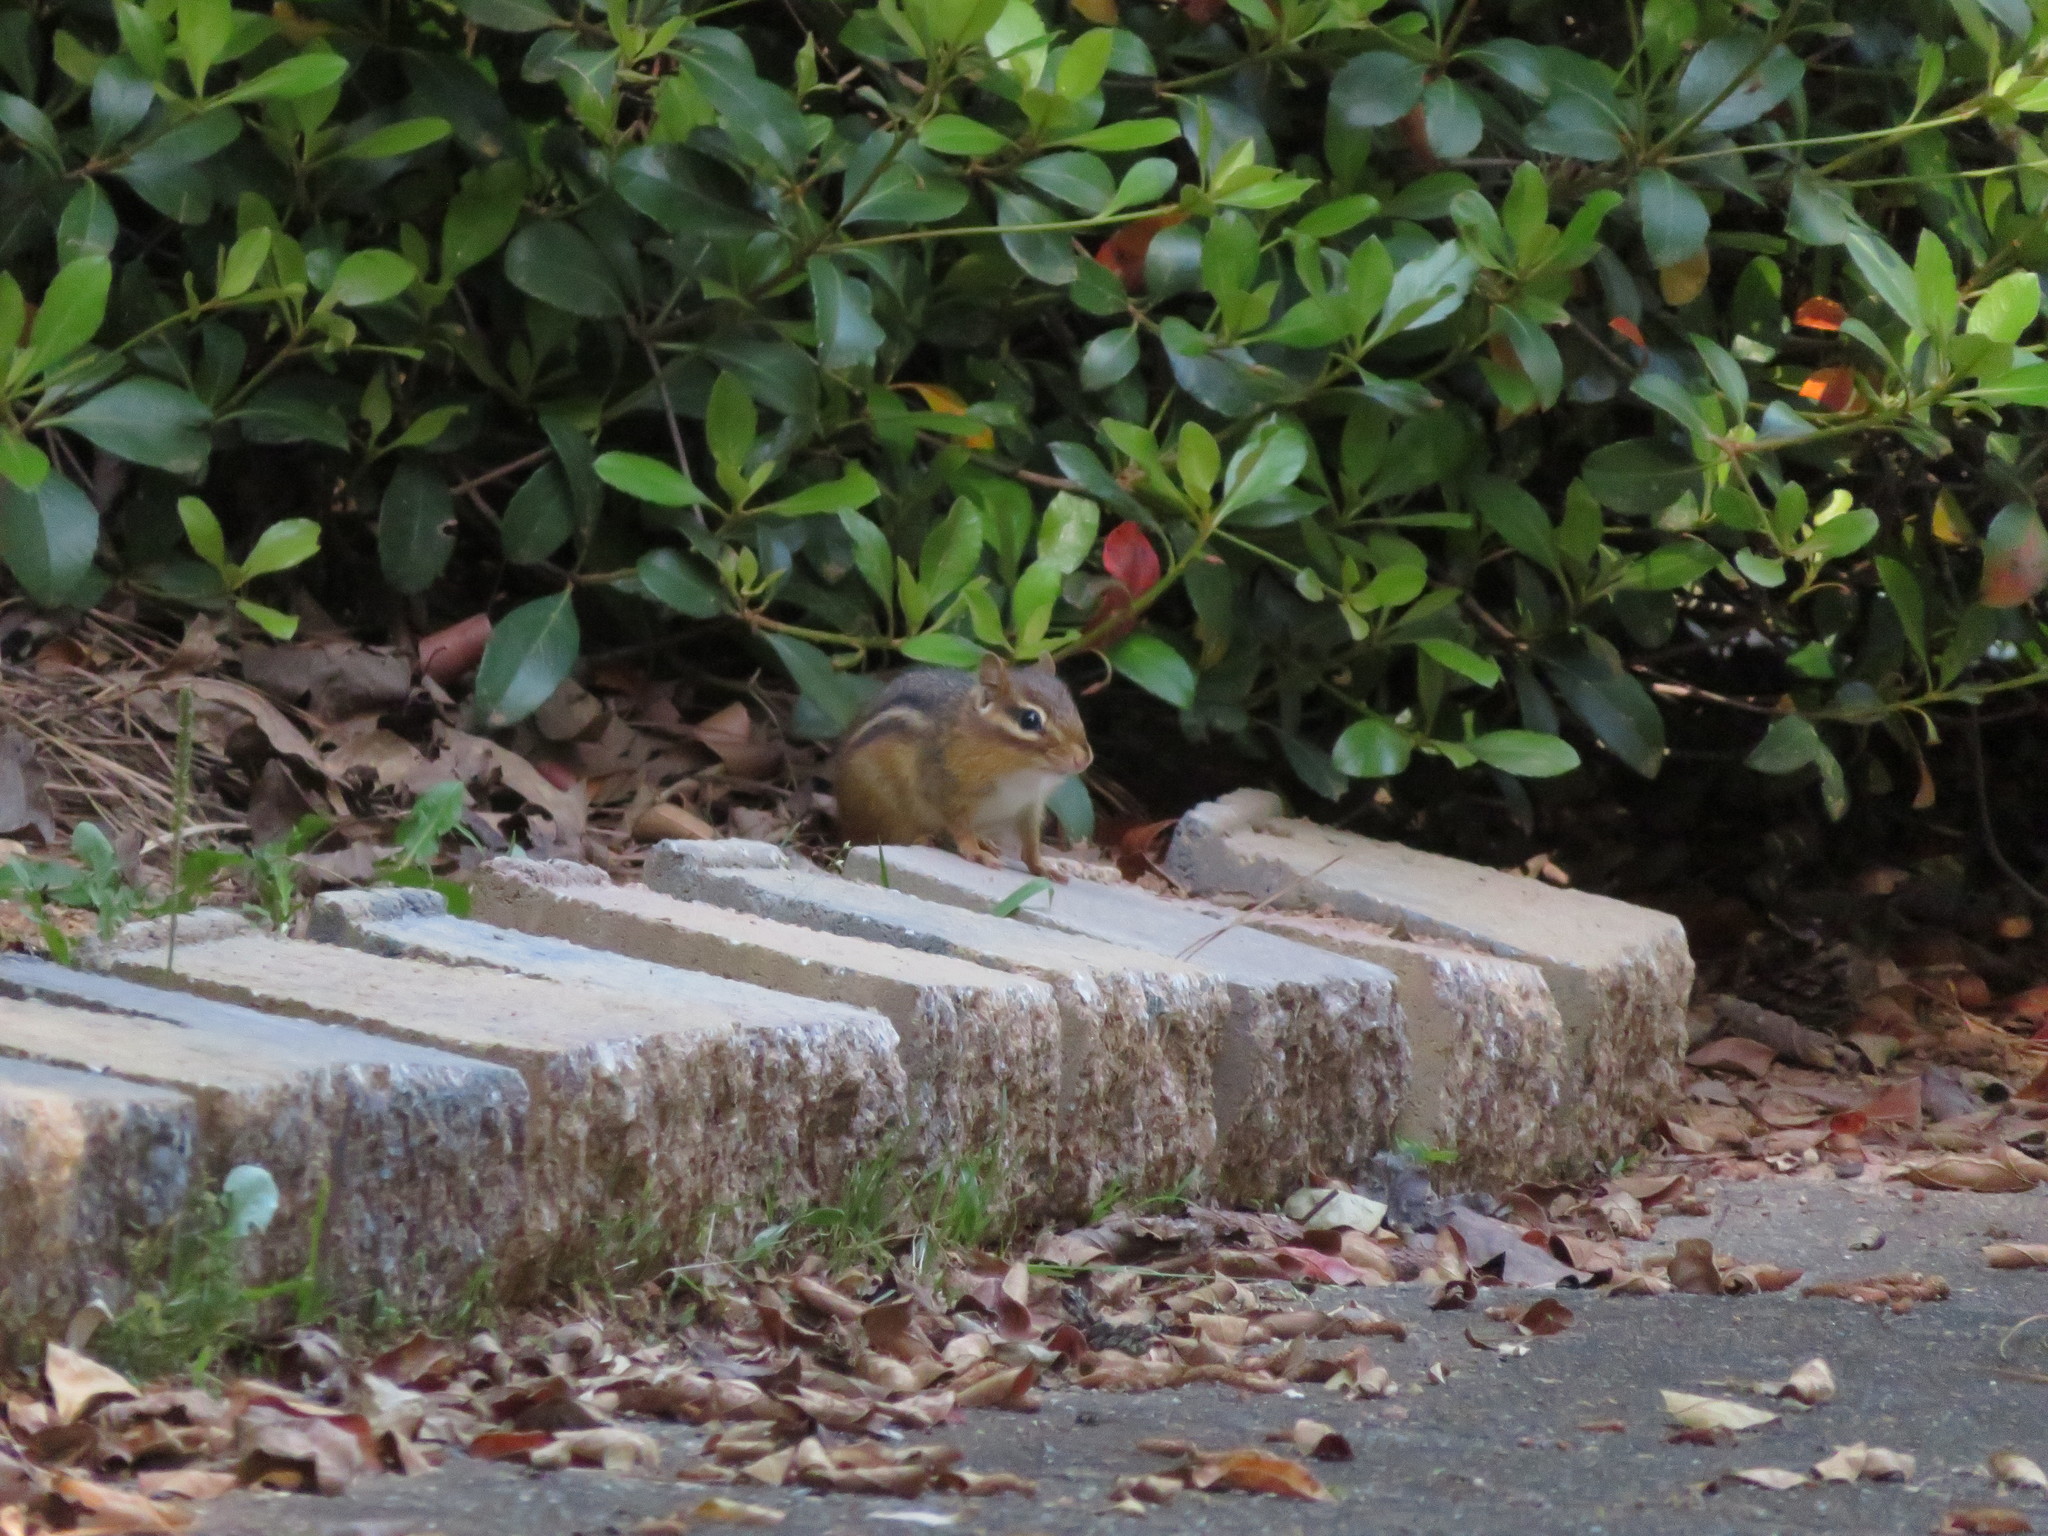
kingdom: Animalia
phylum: Chordata
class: Mammalia
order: Rodentia
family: Sciuridae
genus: Tamias
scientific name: Tamias striatus
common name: Eastern chipmunk
